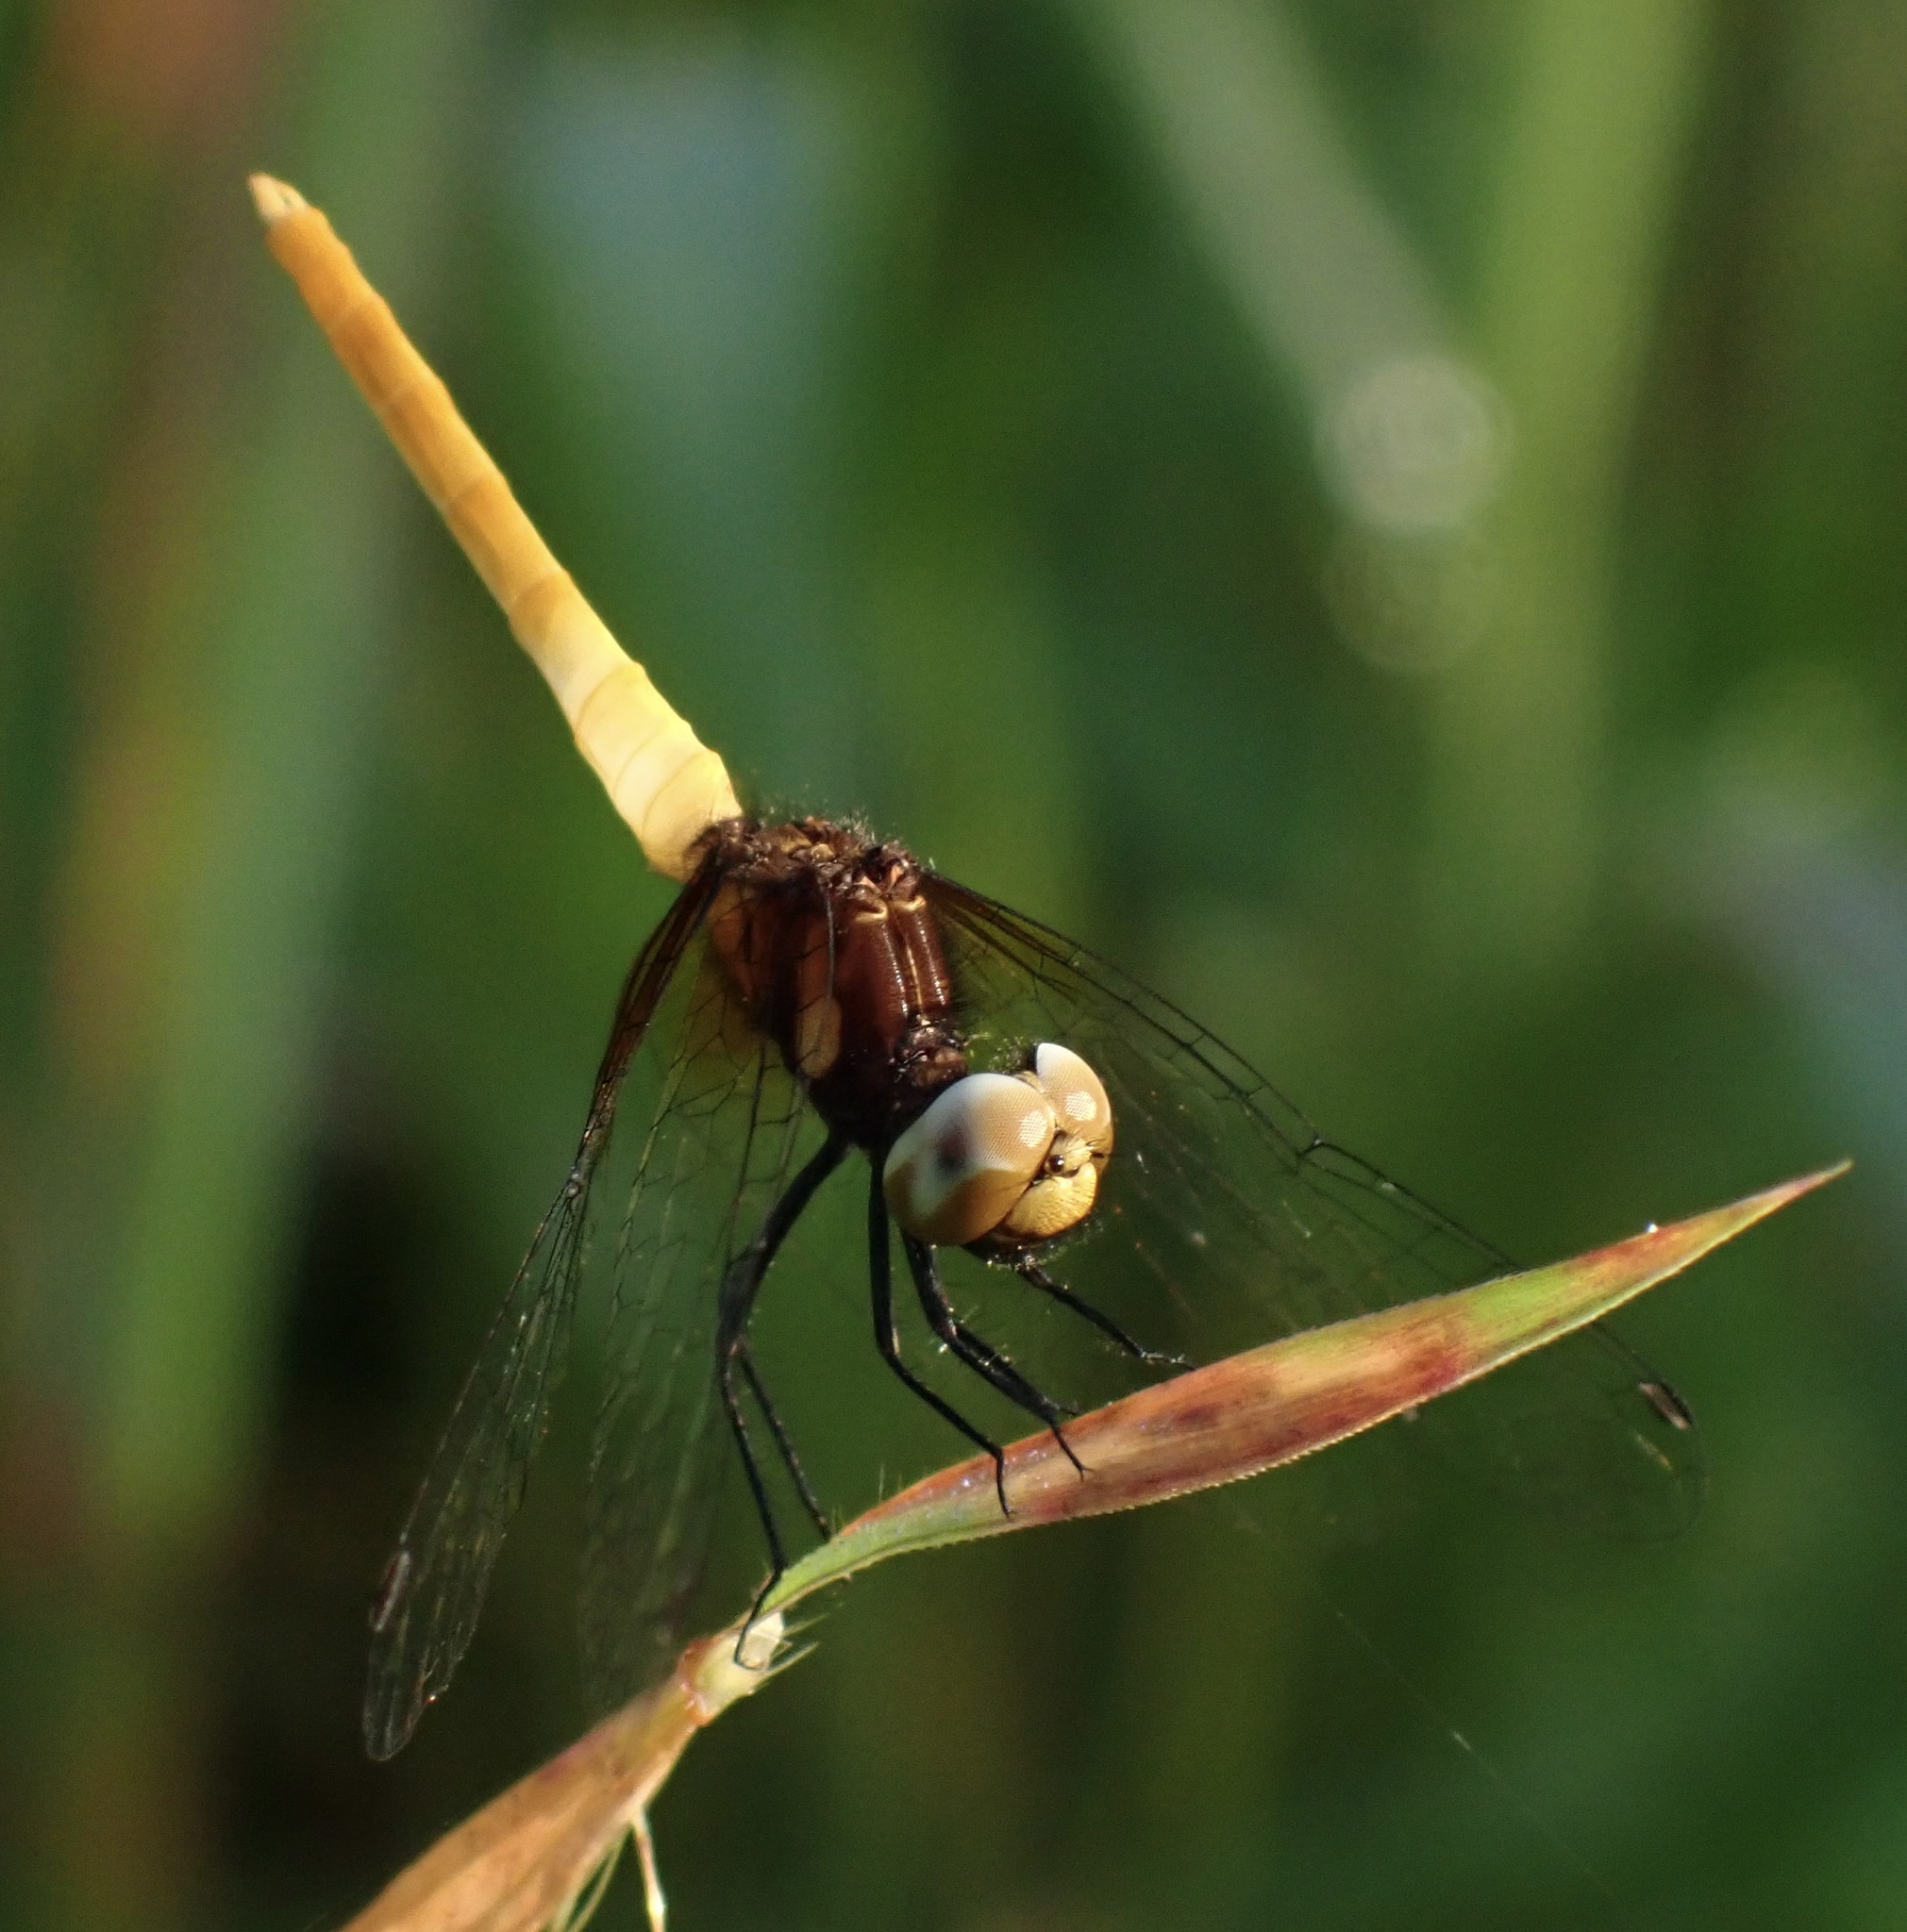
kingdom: Animalia
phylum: Arthropoda
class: Insecta
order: Odonata
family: Libellulidae
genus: Nannophya
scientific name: Nannophya pygmaea
